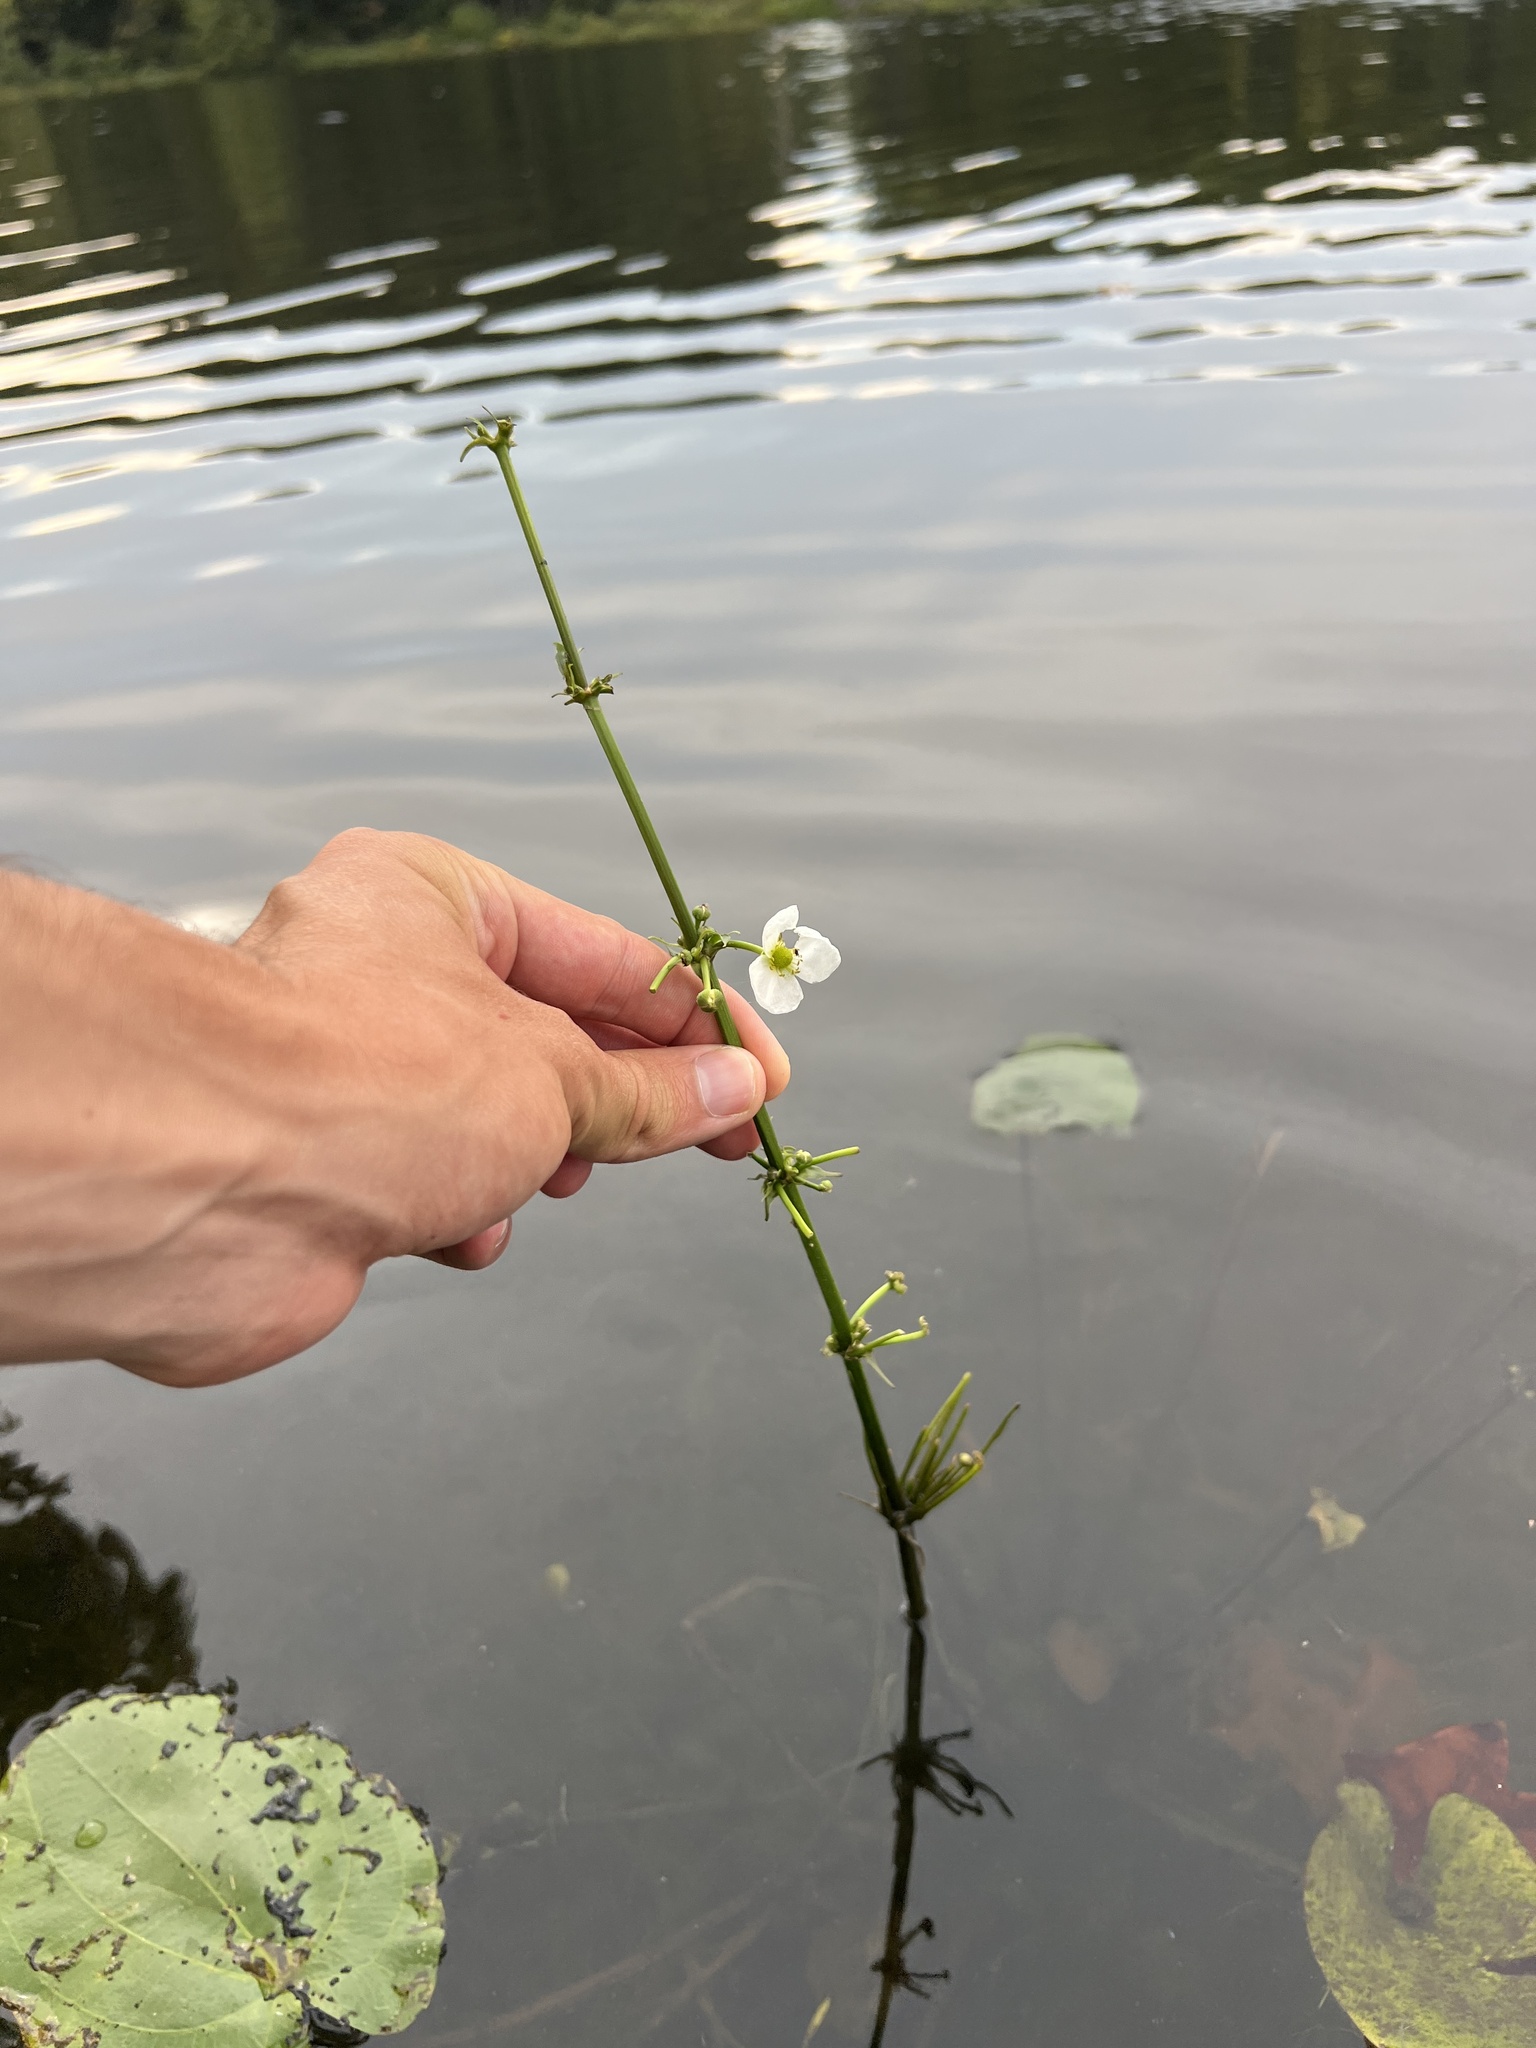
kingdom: Plantae
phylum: Tracheophyta
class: Liliopsida
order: Alismatales
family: Alismataceae
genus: Aquarius
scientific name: Aquarius cordifolius
